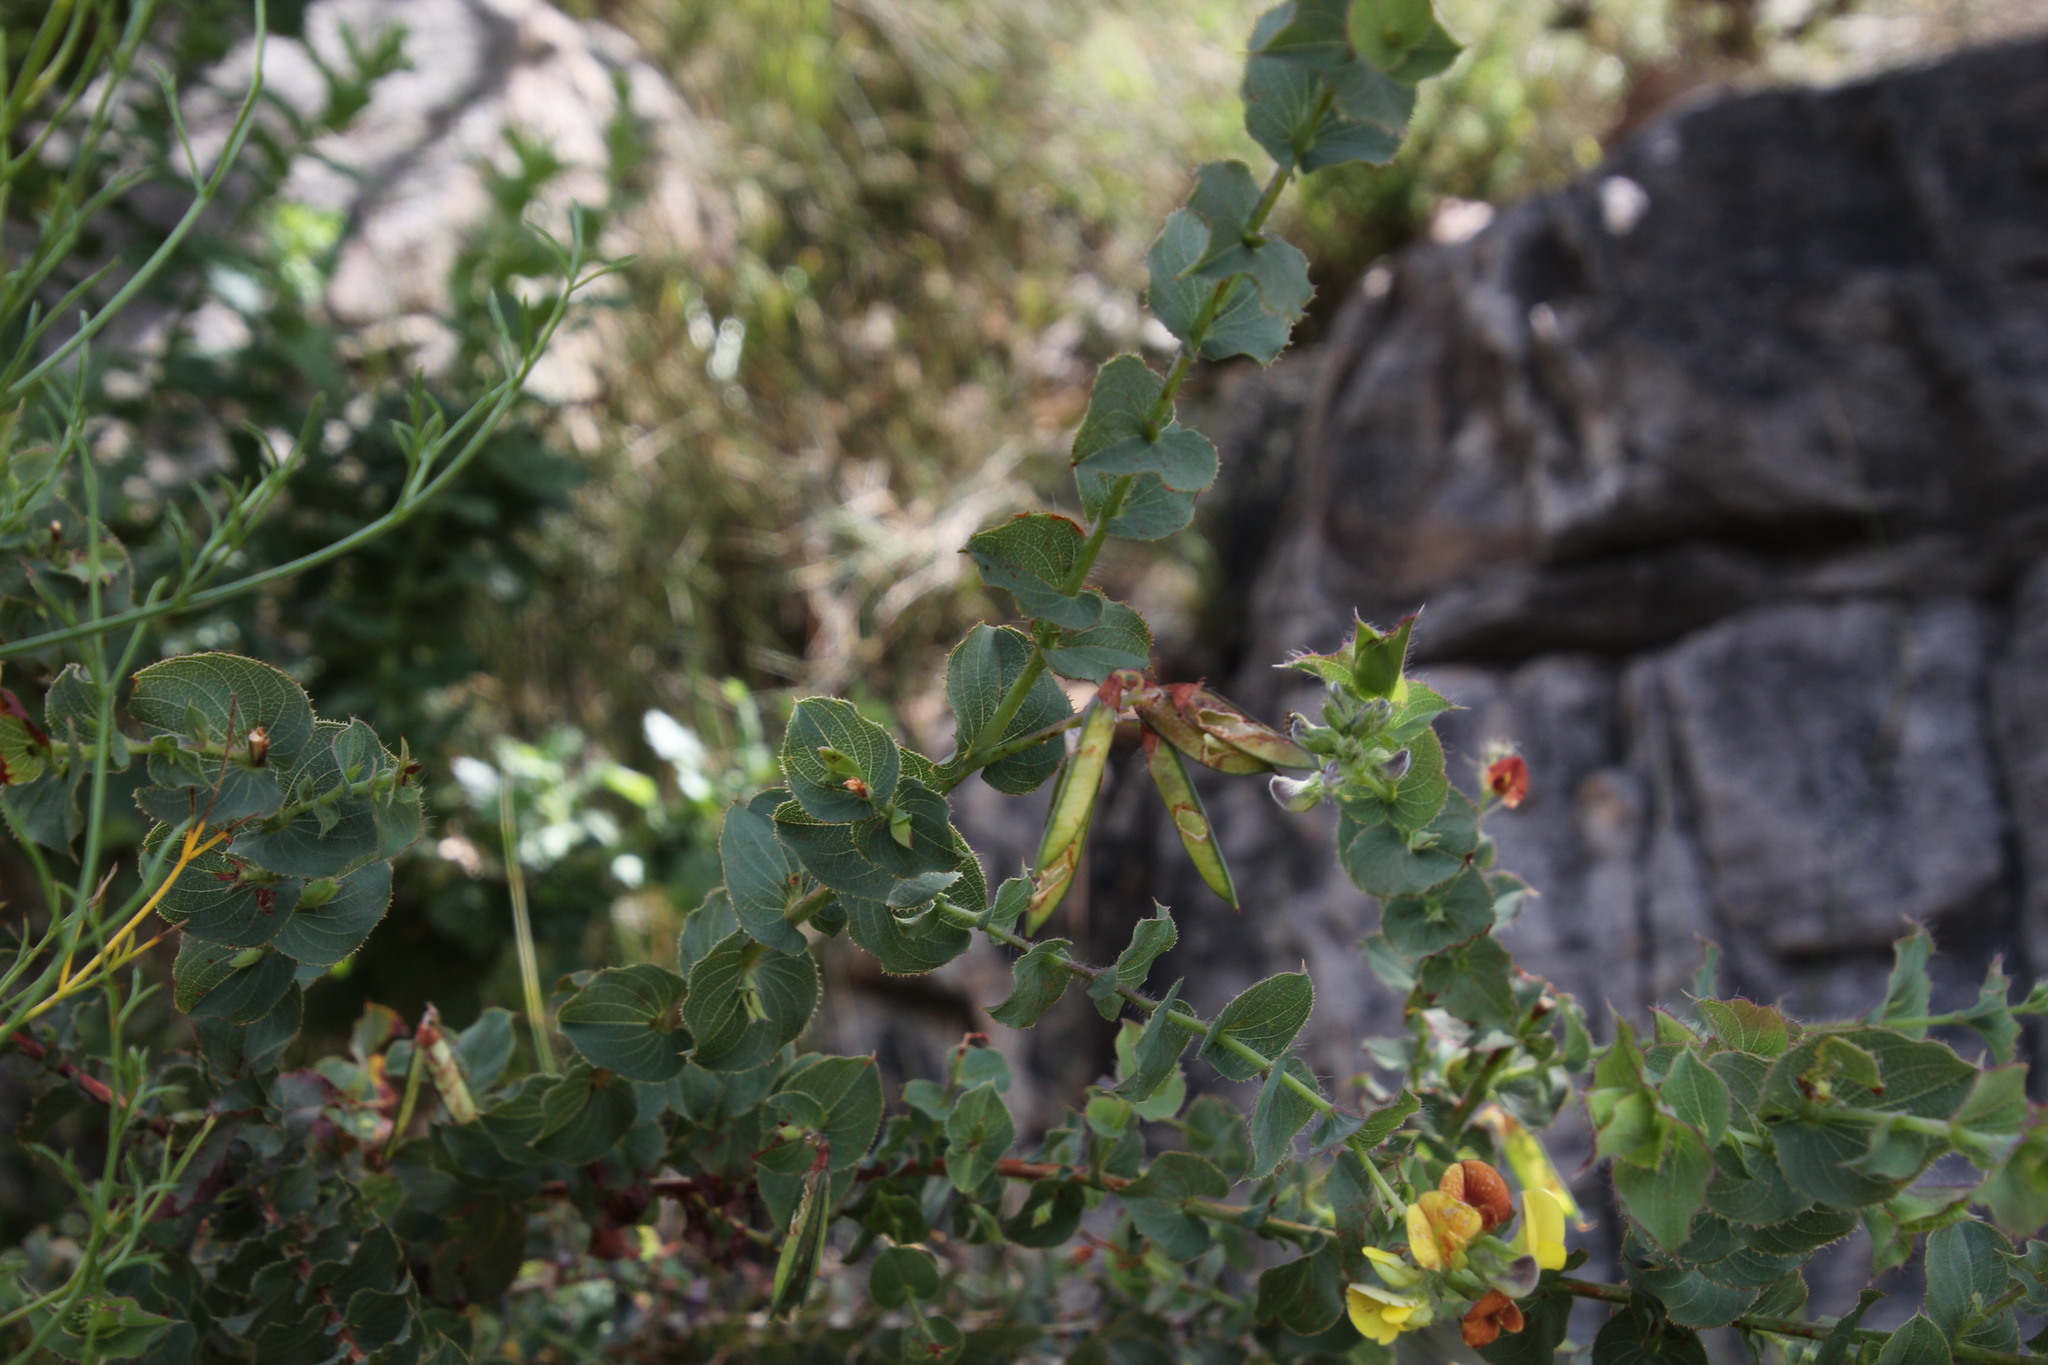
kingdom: Plantae
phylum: Tracheophyta
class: Magnoliopsida
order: Fabales
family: Fabaceae
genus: Aspalathus
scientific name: Aspalathus perfoliata
